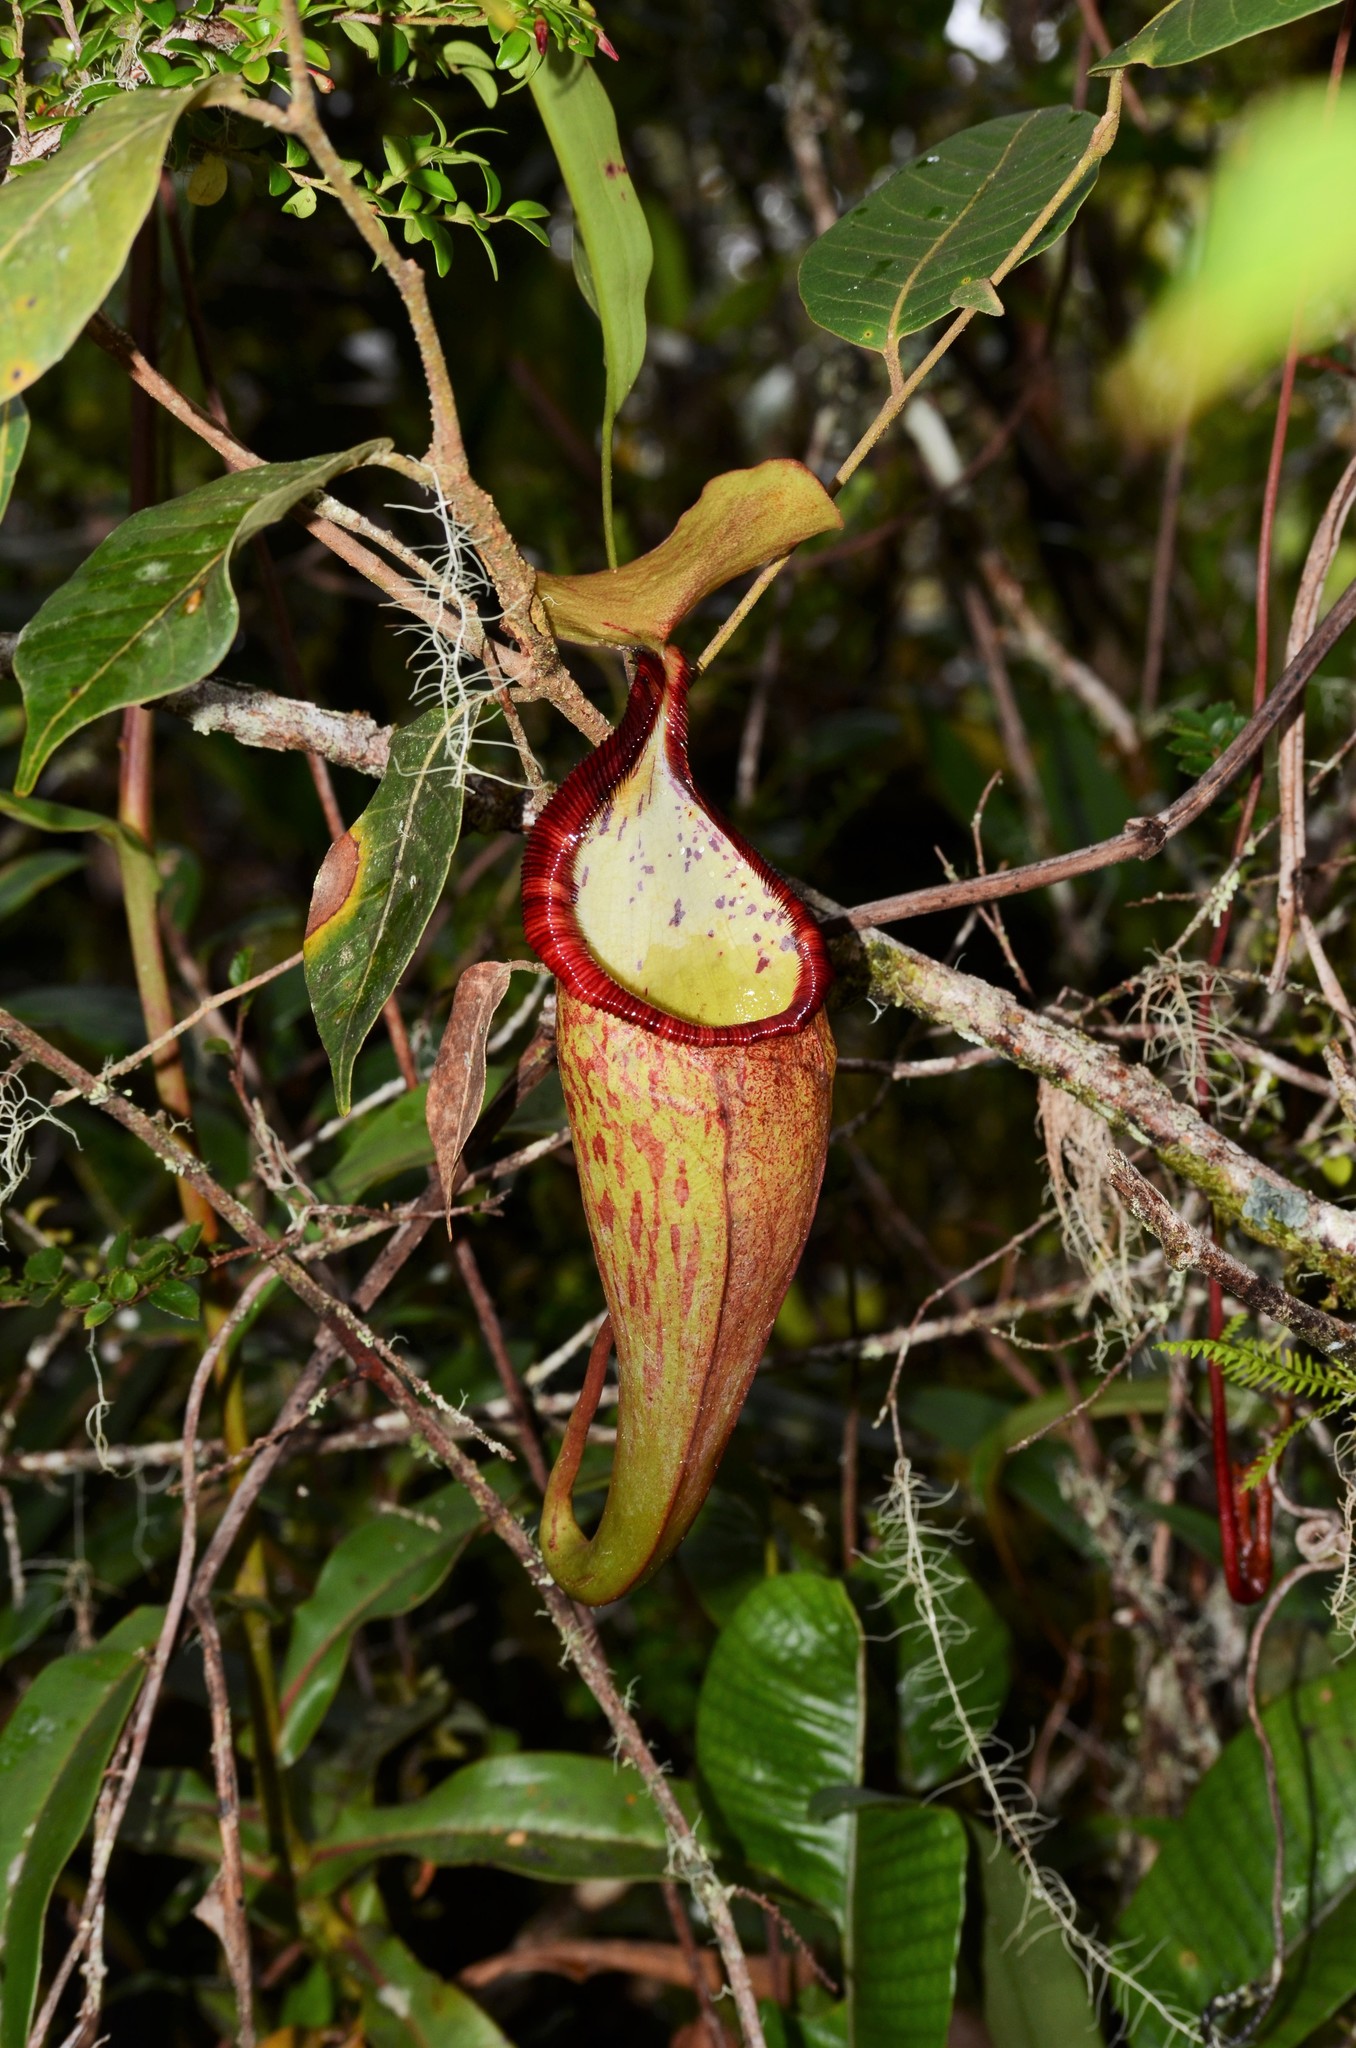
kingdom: Plantae
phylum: Tracheophyta
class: Magnoliopsida
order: Caryophyllales
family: Nepenthaceae
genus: Nepenthes
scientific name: Nepenthes densiflora
